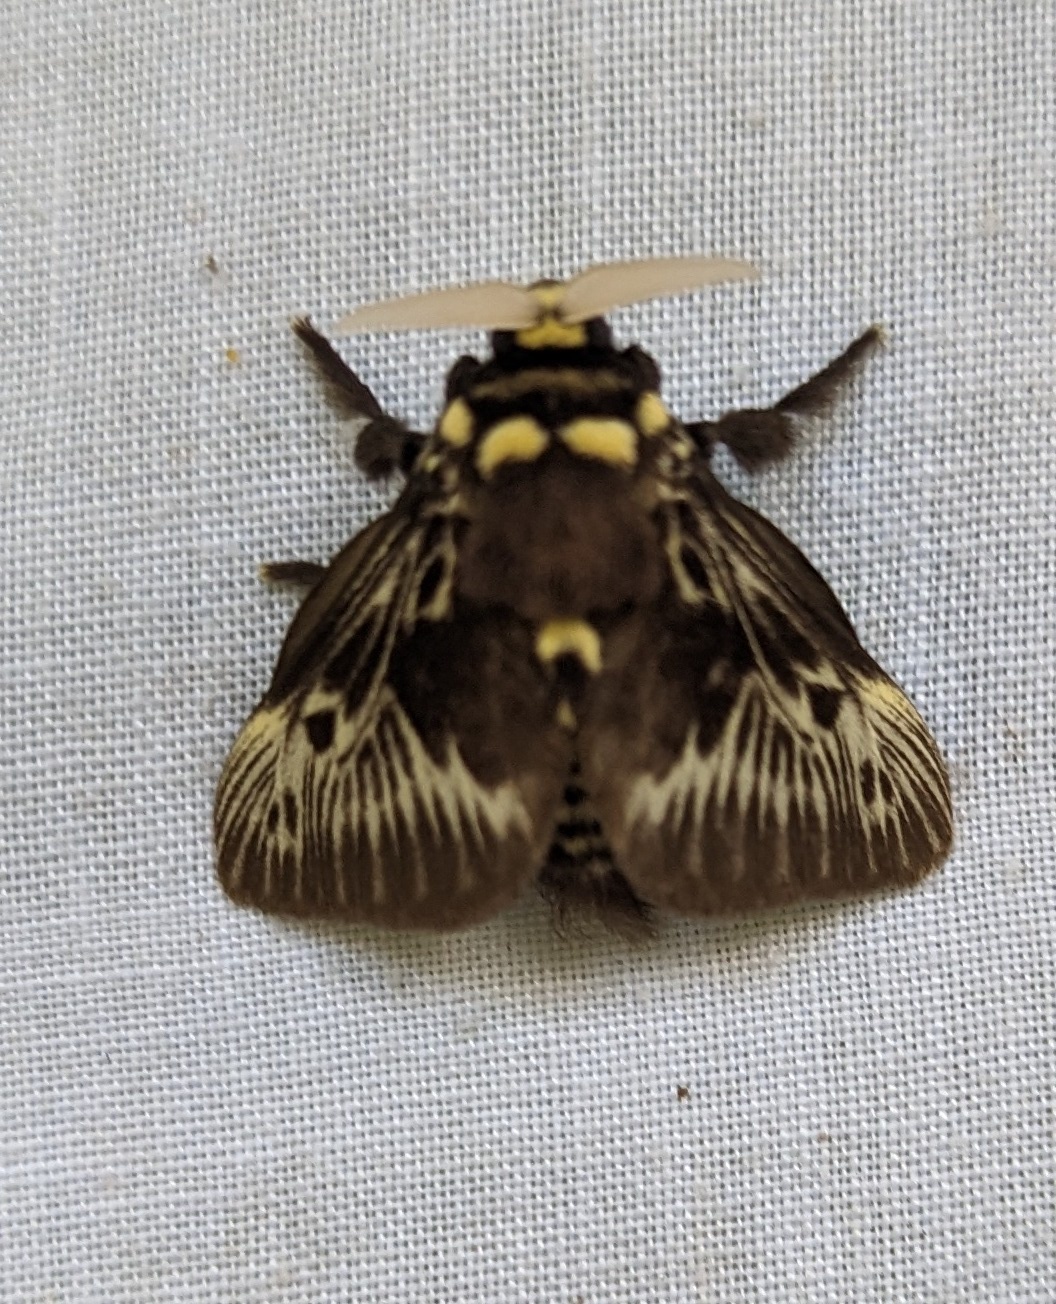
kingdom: Animalia
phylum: Arthropoda
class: Insecta
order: Lepidoptera
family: Megalopygidae
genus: Megalopyge
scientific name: Megalopyge albicollis
